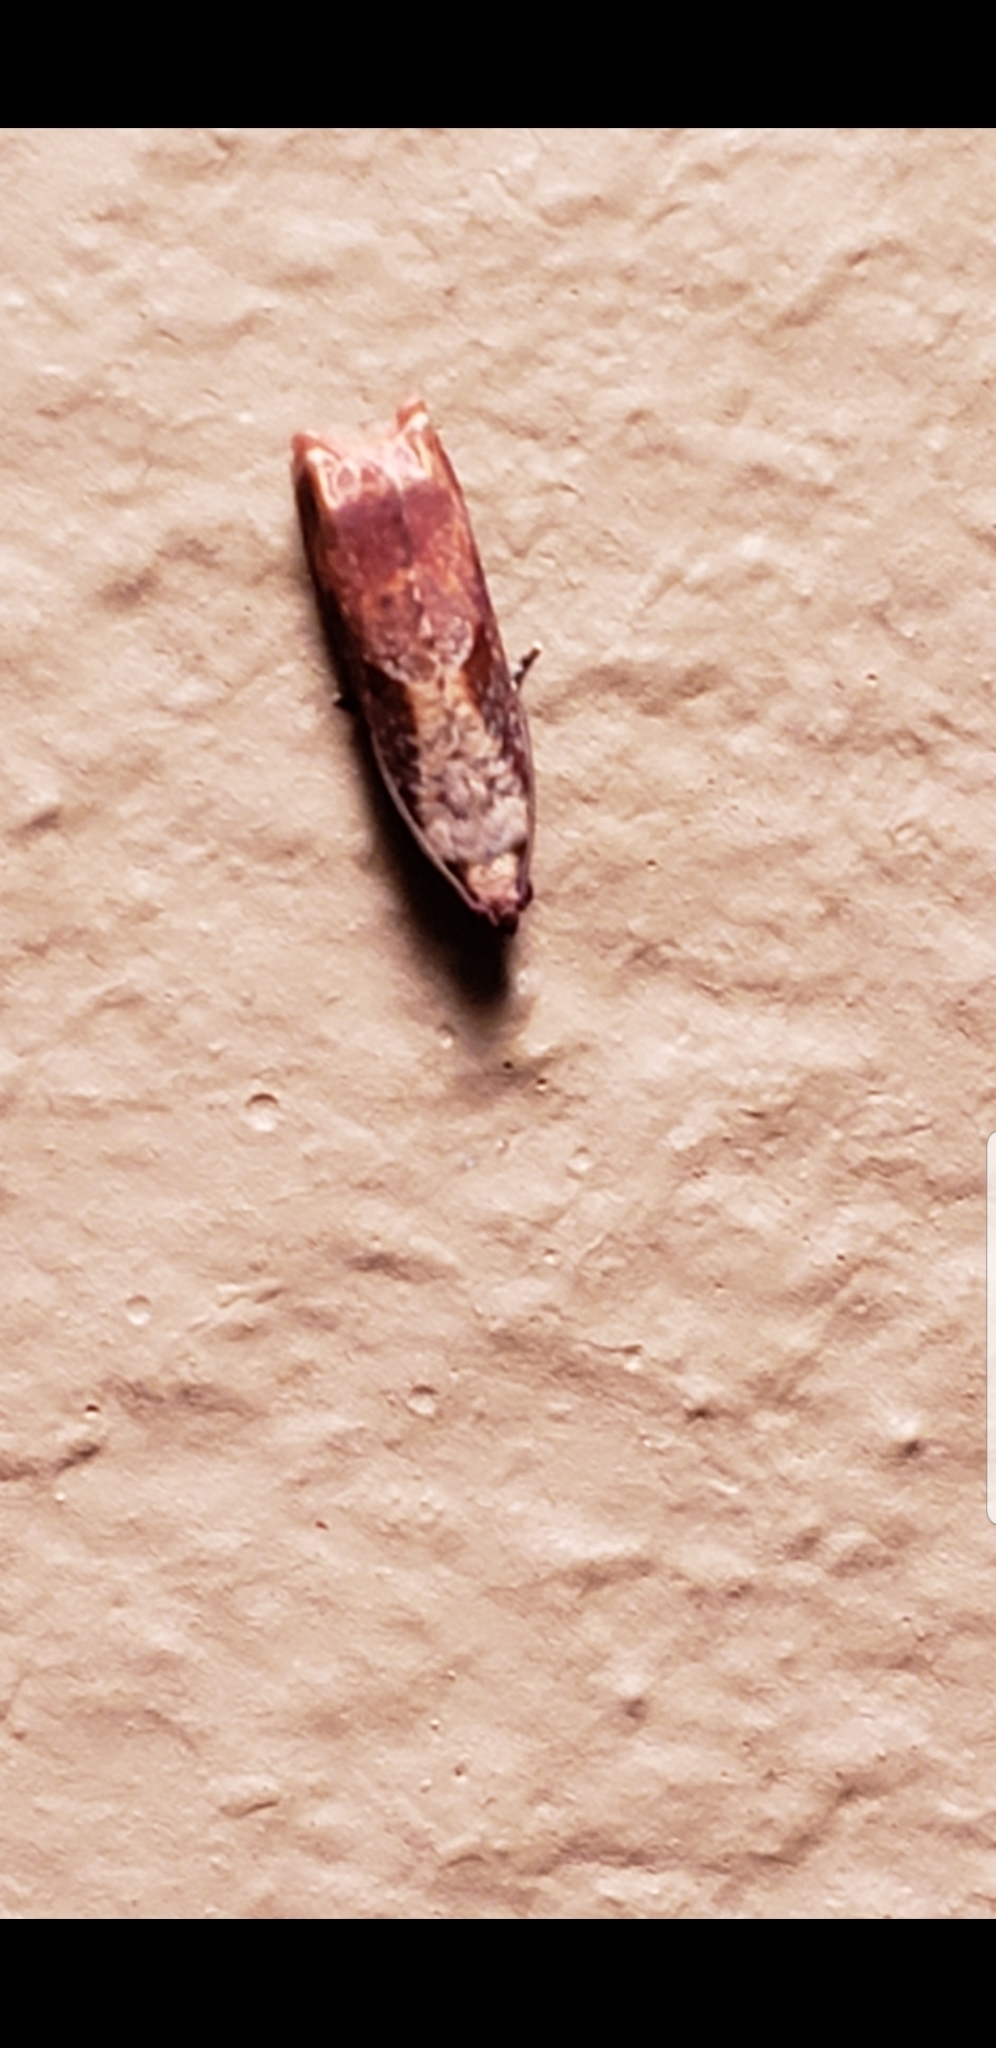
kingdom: Animalia
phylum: Arthropoda
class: Insecta
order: Lepidoptera
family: Tortricidae
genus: Episimus
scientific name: Episimus tyrius
